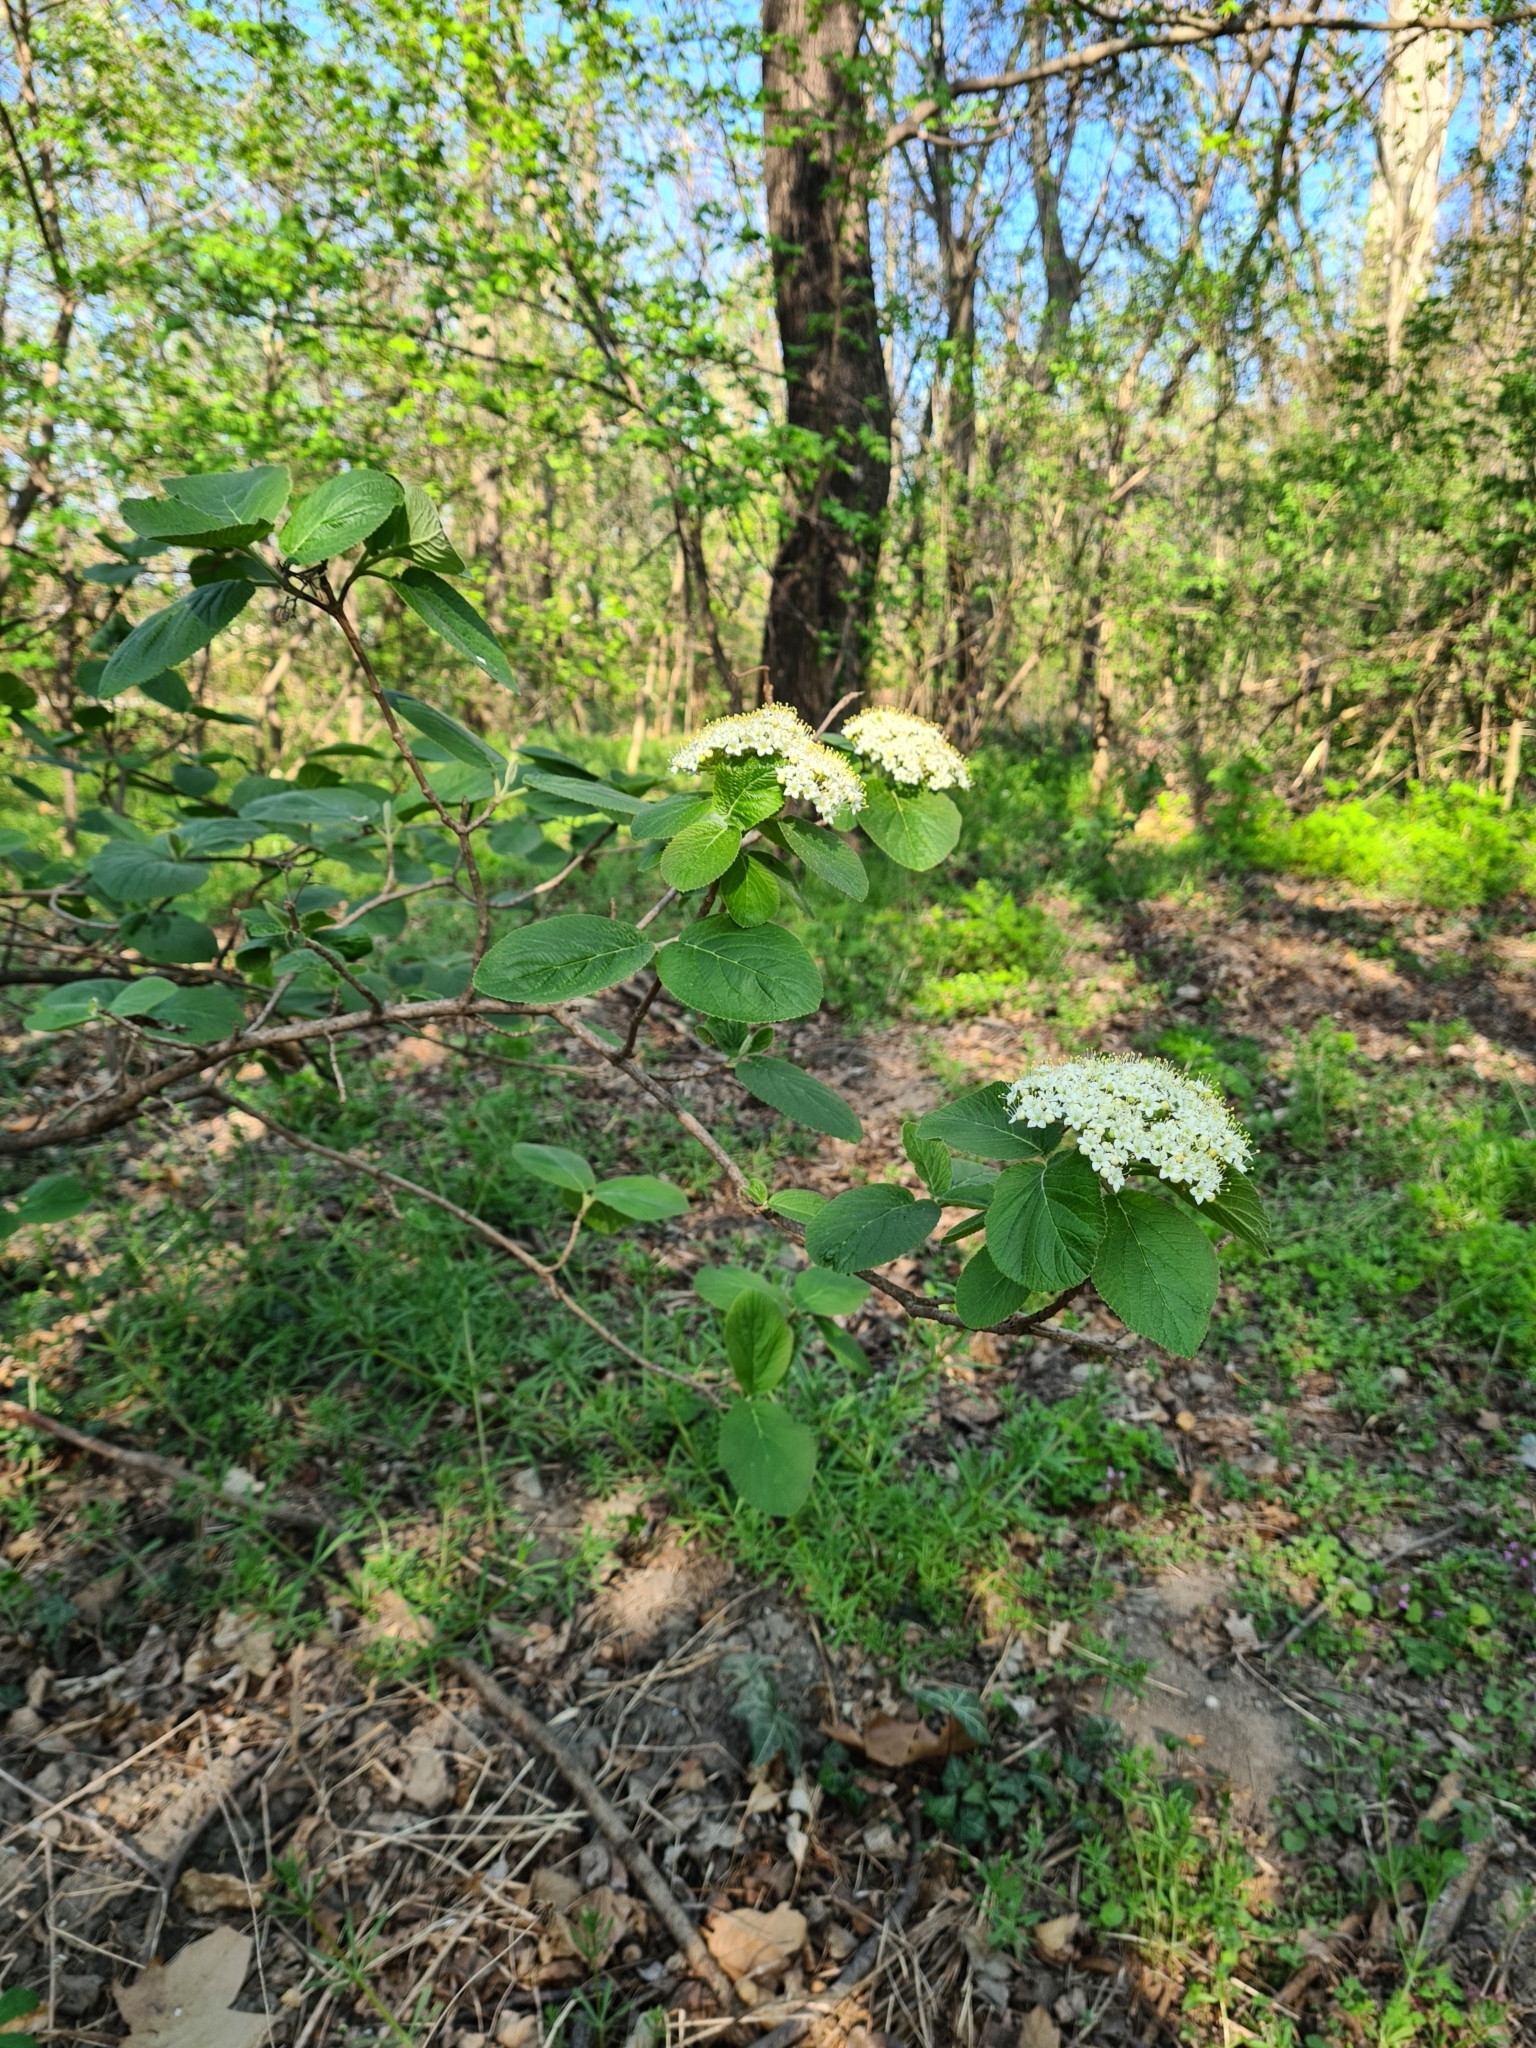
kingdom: Plantae
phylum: Tracheophyta
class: Magnoliopsida
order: Dipsacales
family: Viburnaceae
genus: Viburnum
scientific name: Viburnum lantana
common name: Wayfaring tree
